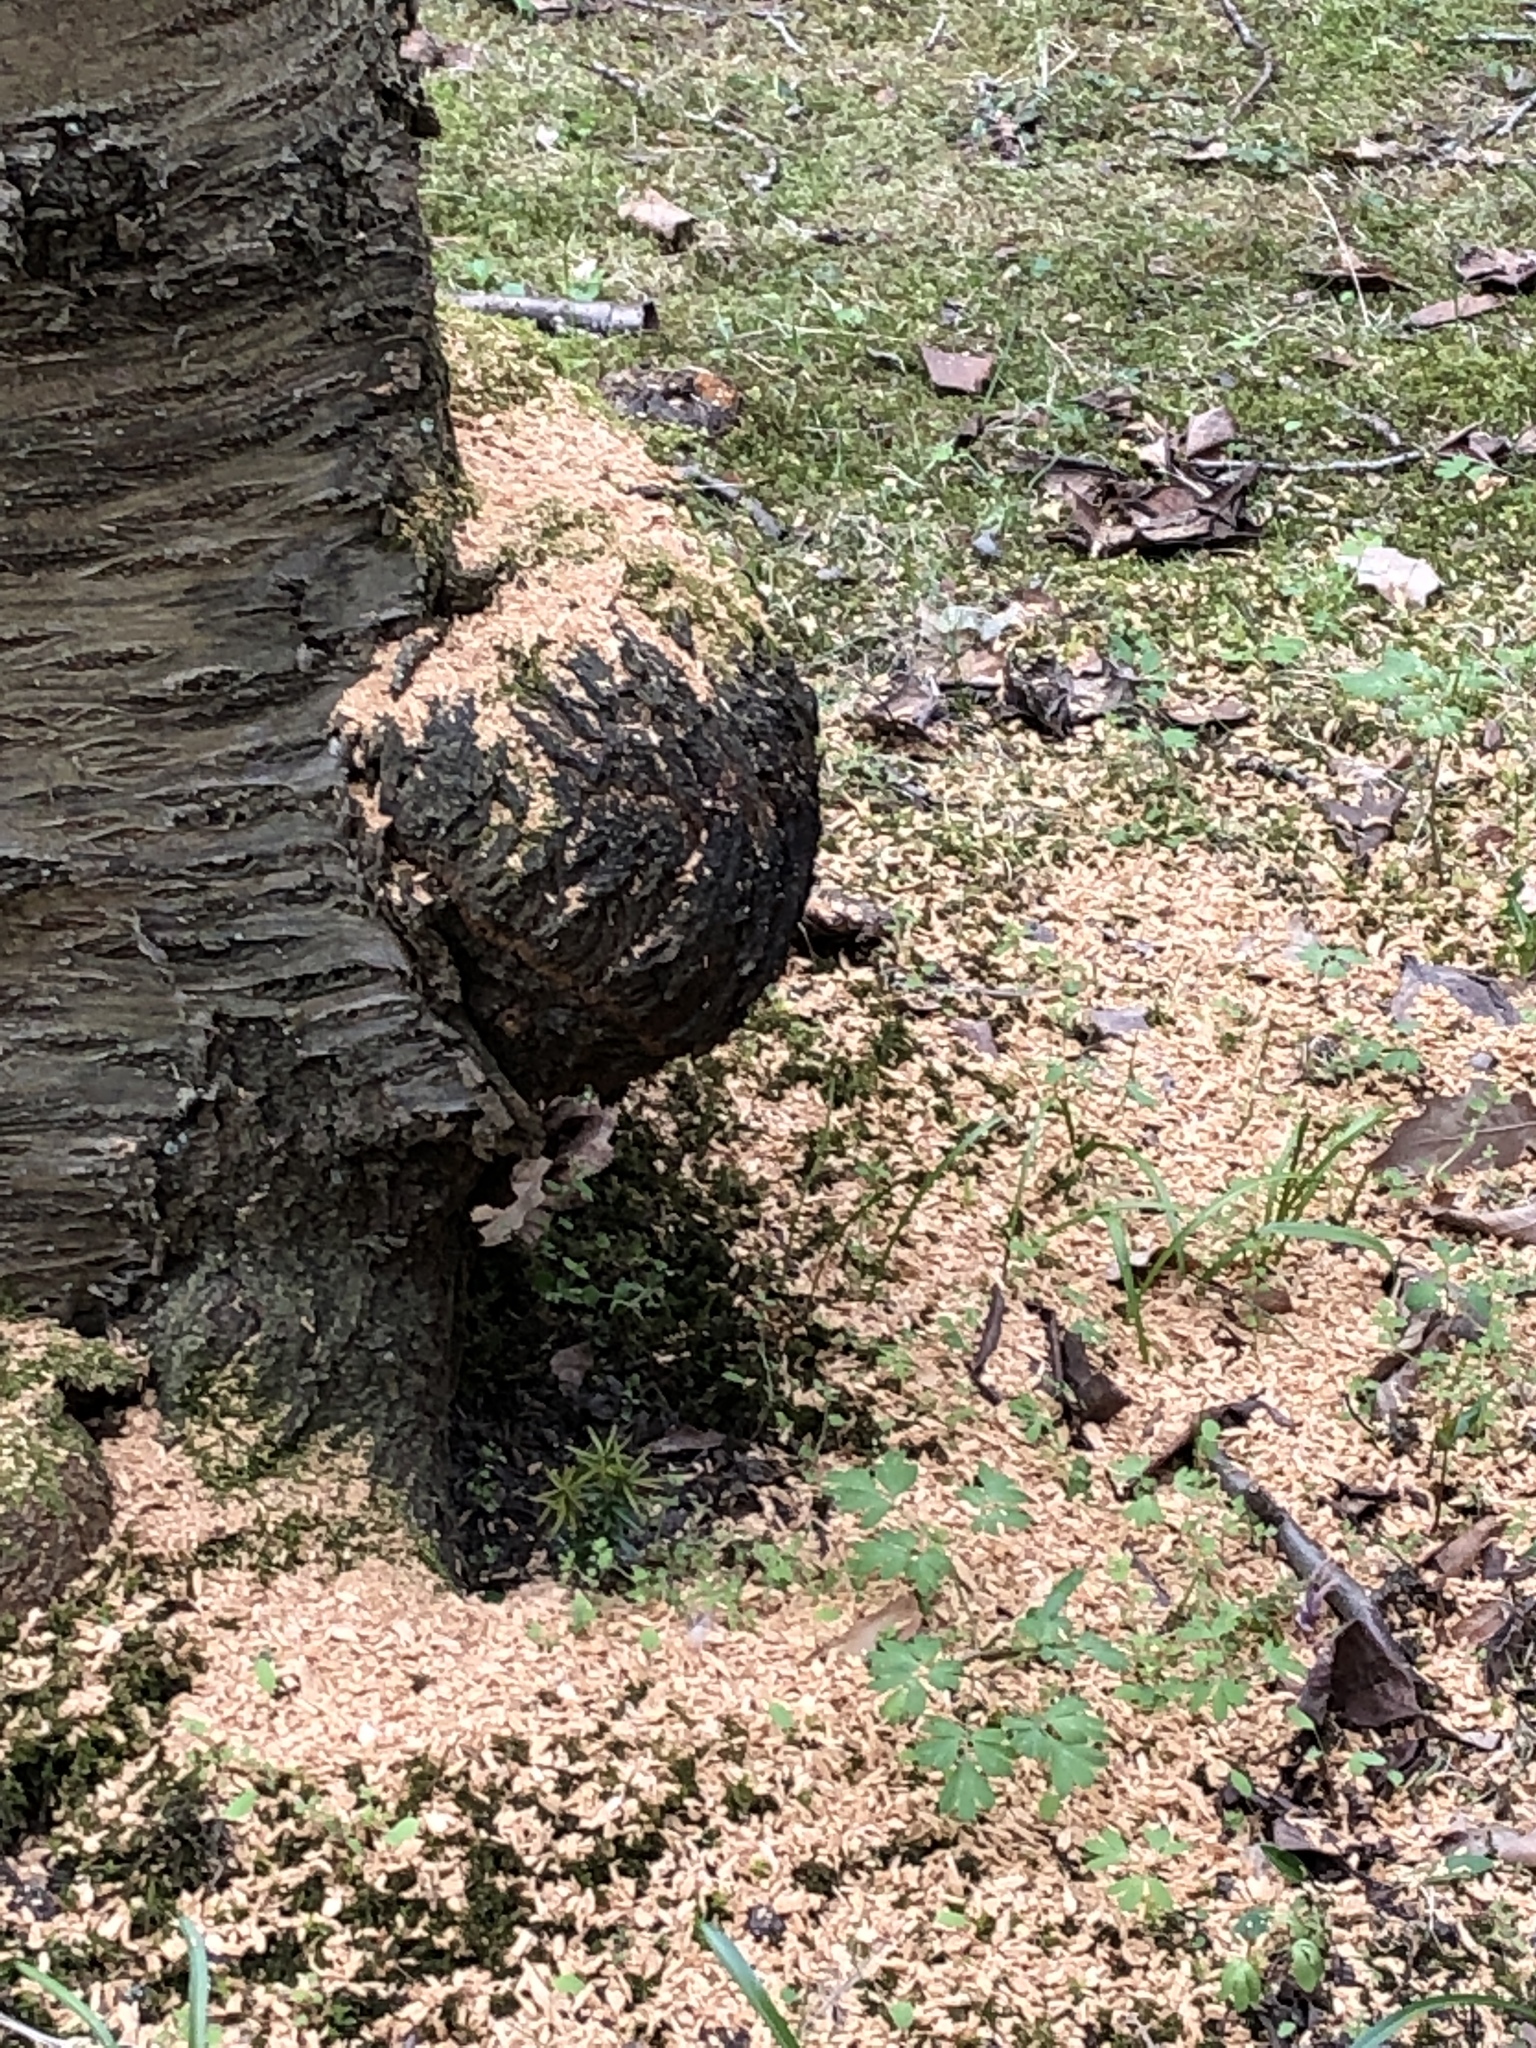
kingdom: Animalia
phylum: Chordata
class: Aves
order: Piciformes
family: Picidae
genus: Dendrocopos
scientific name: Dendrocopos major
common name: Great spotted woodpecker
